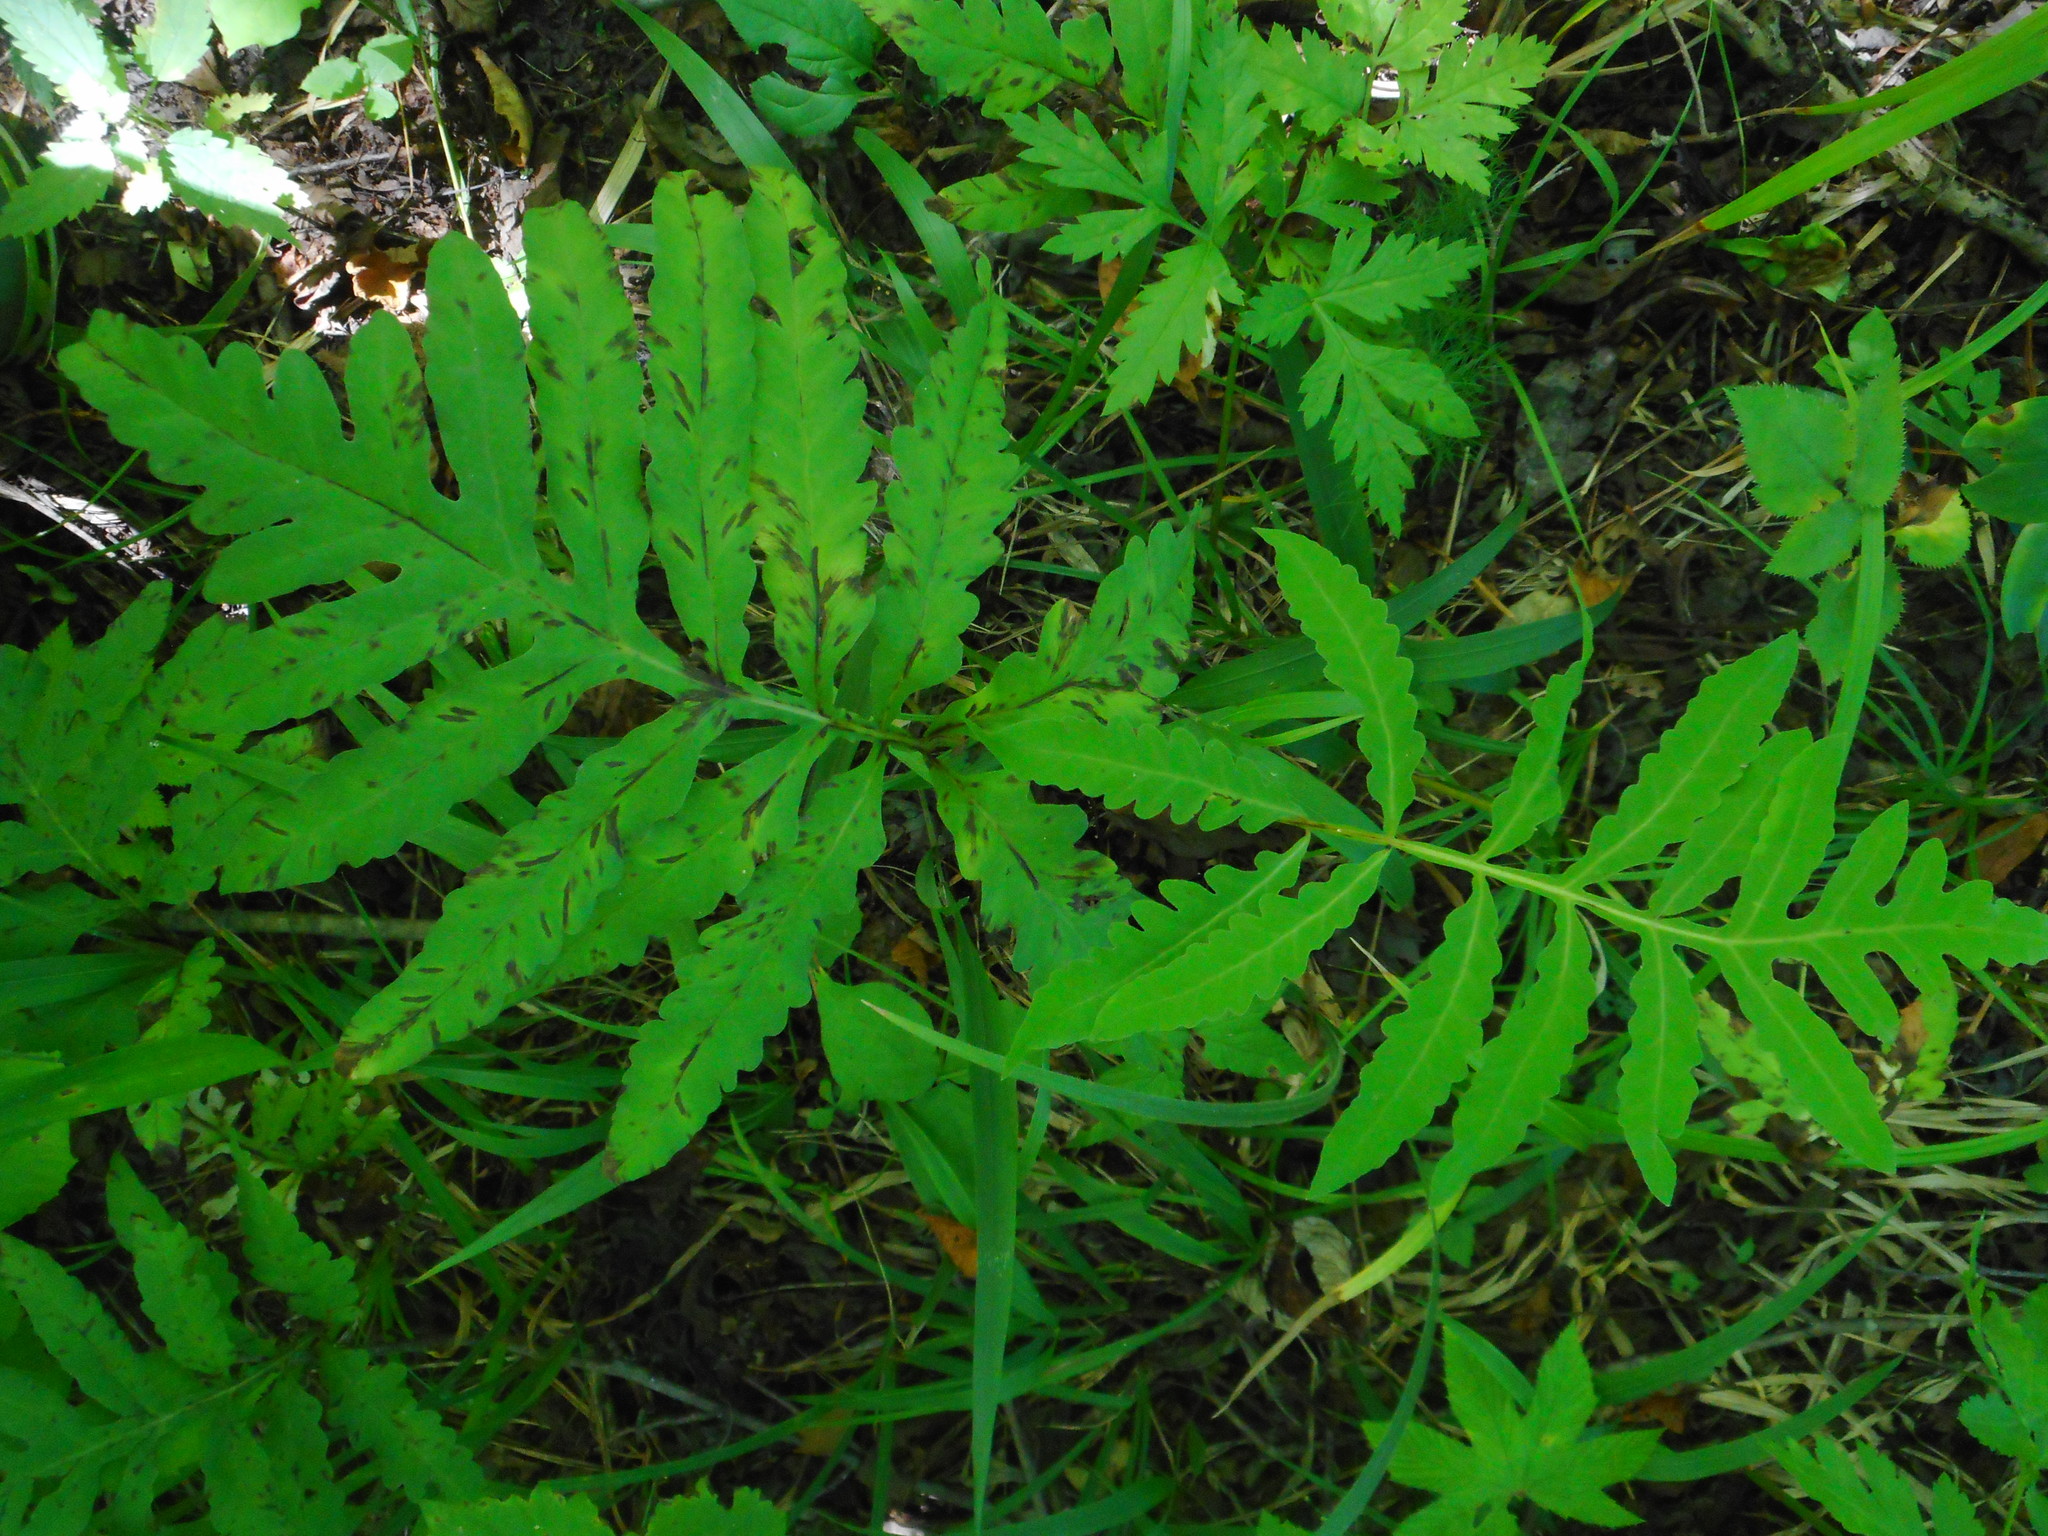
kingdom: Plantae
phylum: Tracheophyta
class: Polypodiopsida
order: Polypodiales
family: Onocleaceae
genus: Onoclea
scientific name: Onoclea sensibilis
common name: Sensitive fern
